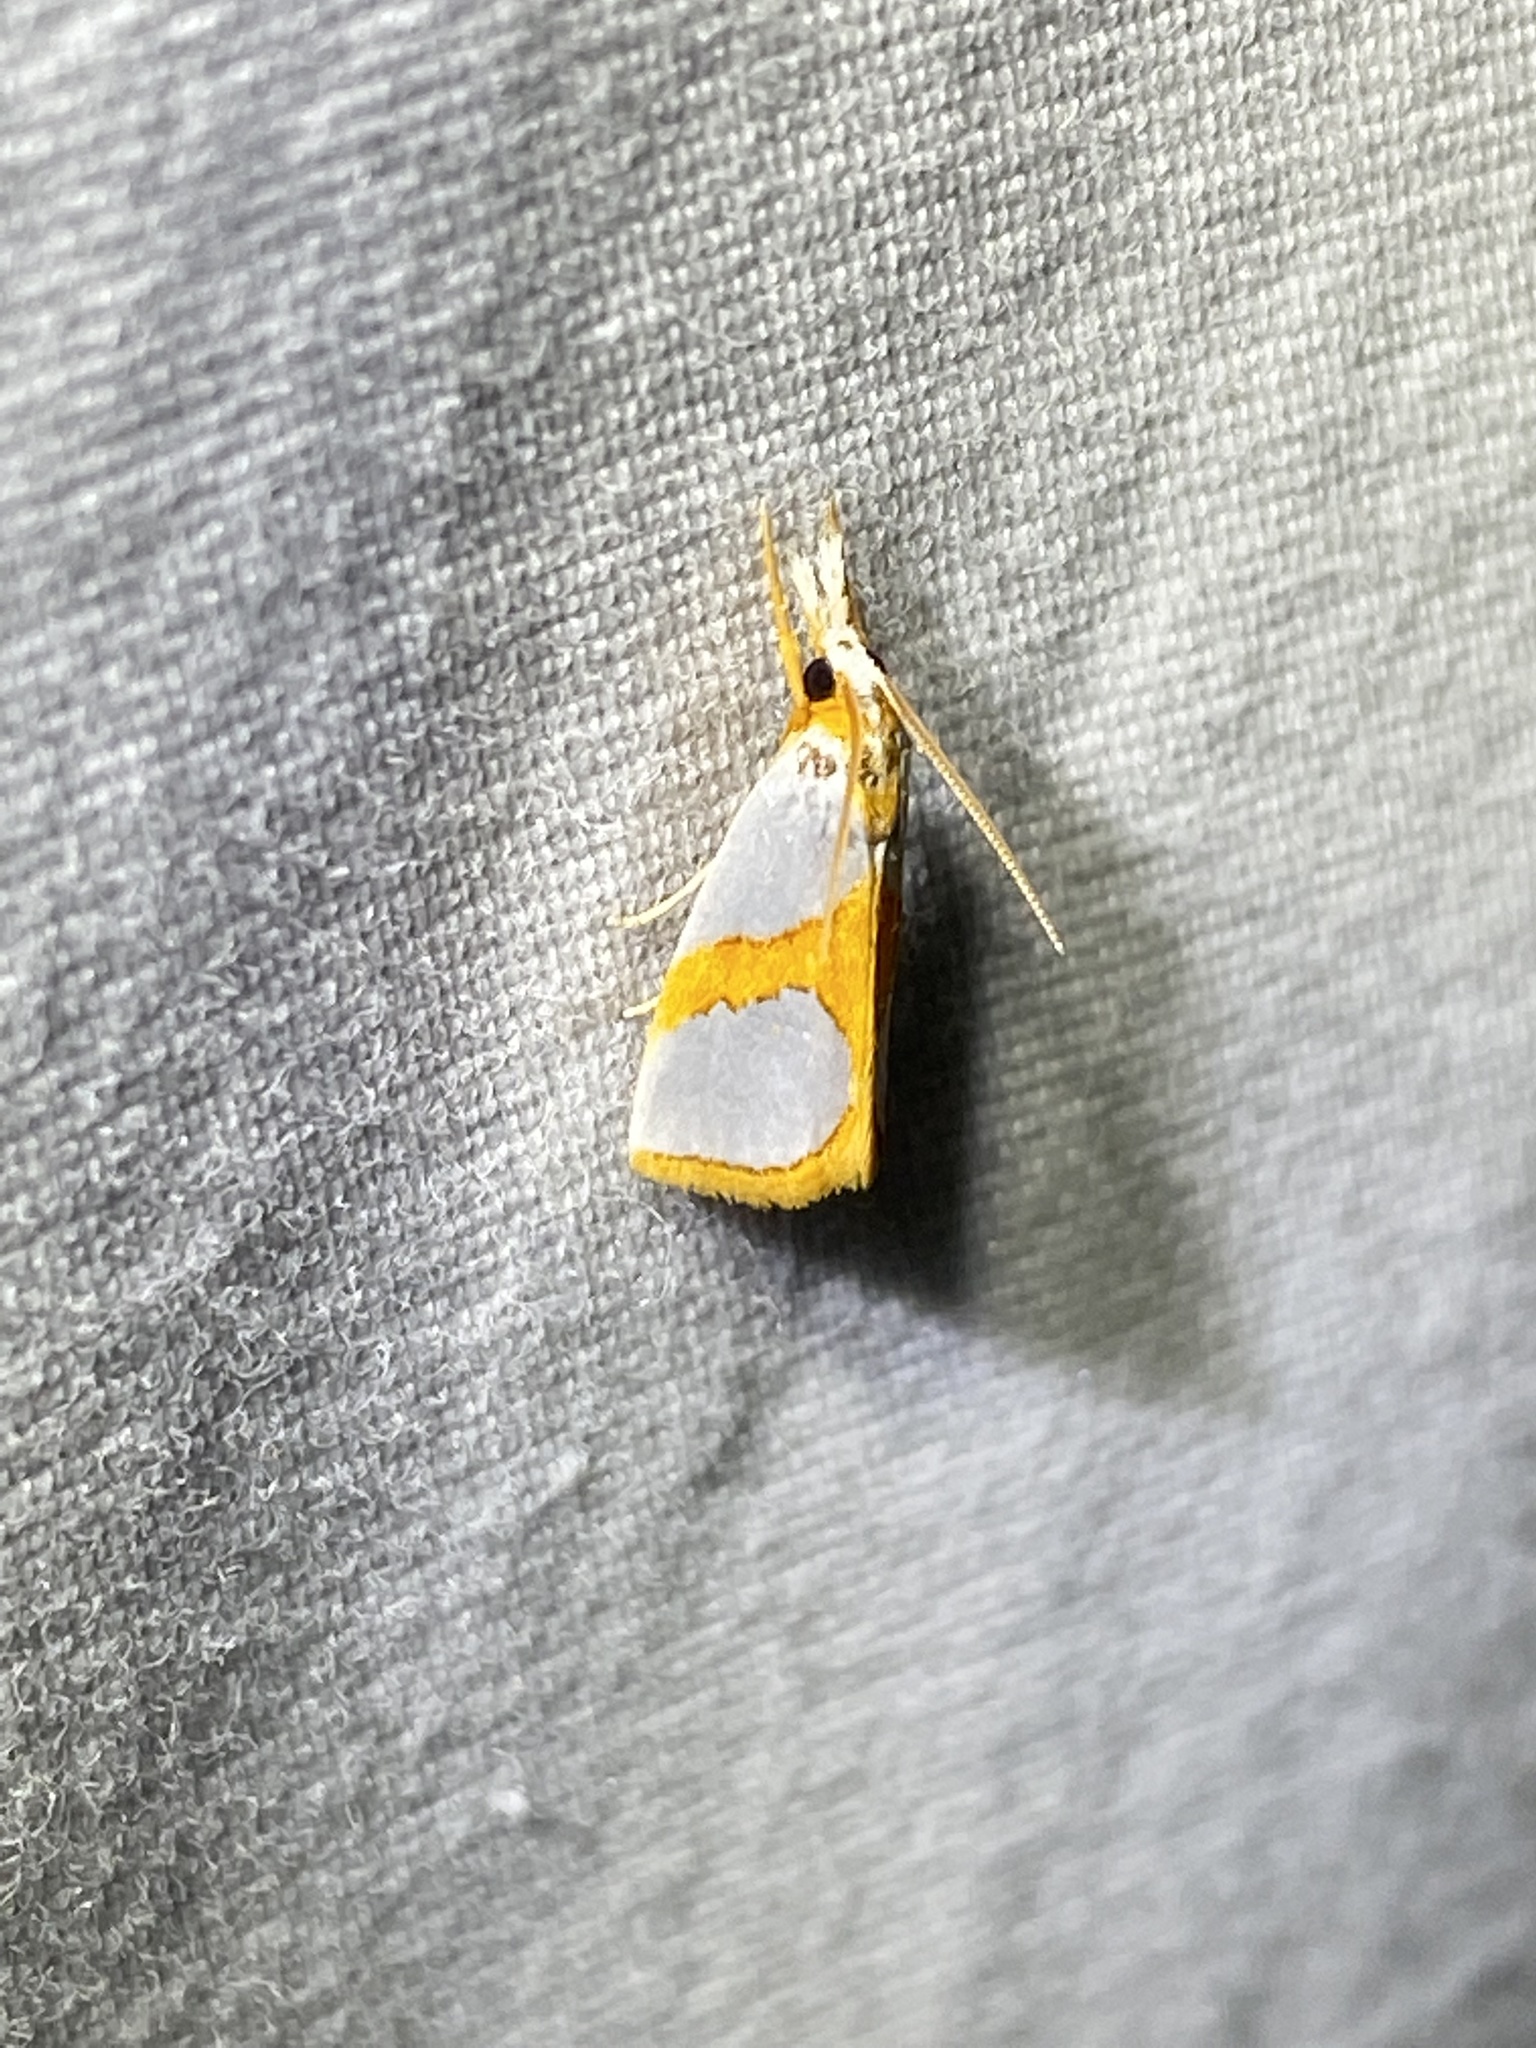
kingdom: Animalia
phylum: Arthropoda
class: Insecta
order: Lepidoptera
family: Crambidae
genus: Argyria
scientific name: Argyria auratella
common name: Curve-lined argyria moth
